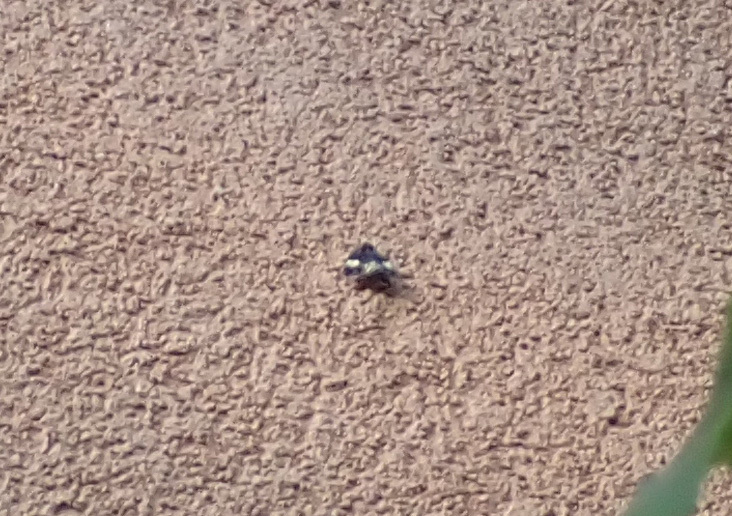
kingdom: Animalia
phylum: Arthropoda
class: Insecta
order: Lepidoptera
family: Erebidae
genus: Tyta
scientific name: Tyta luctuosa
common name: Four-spotted
